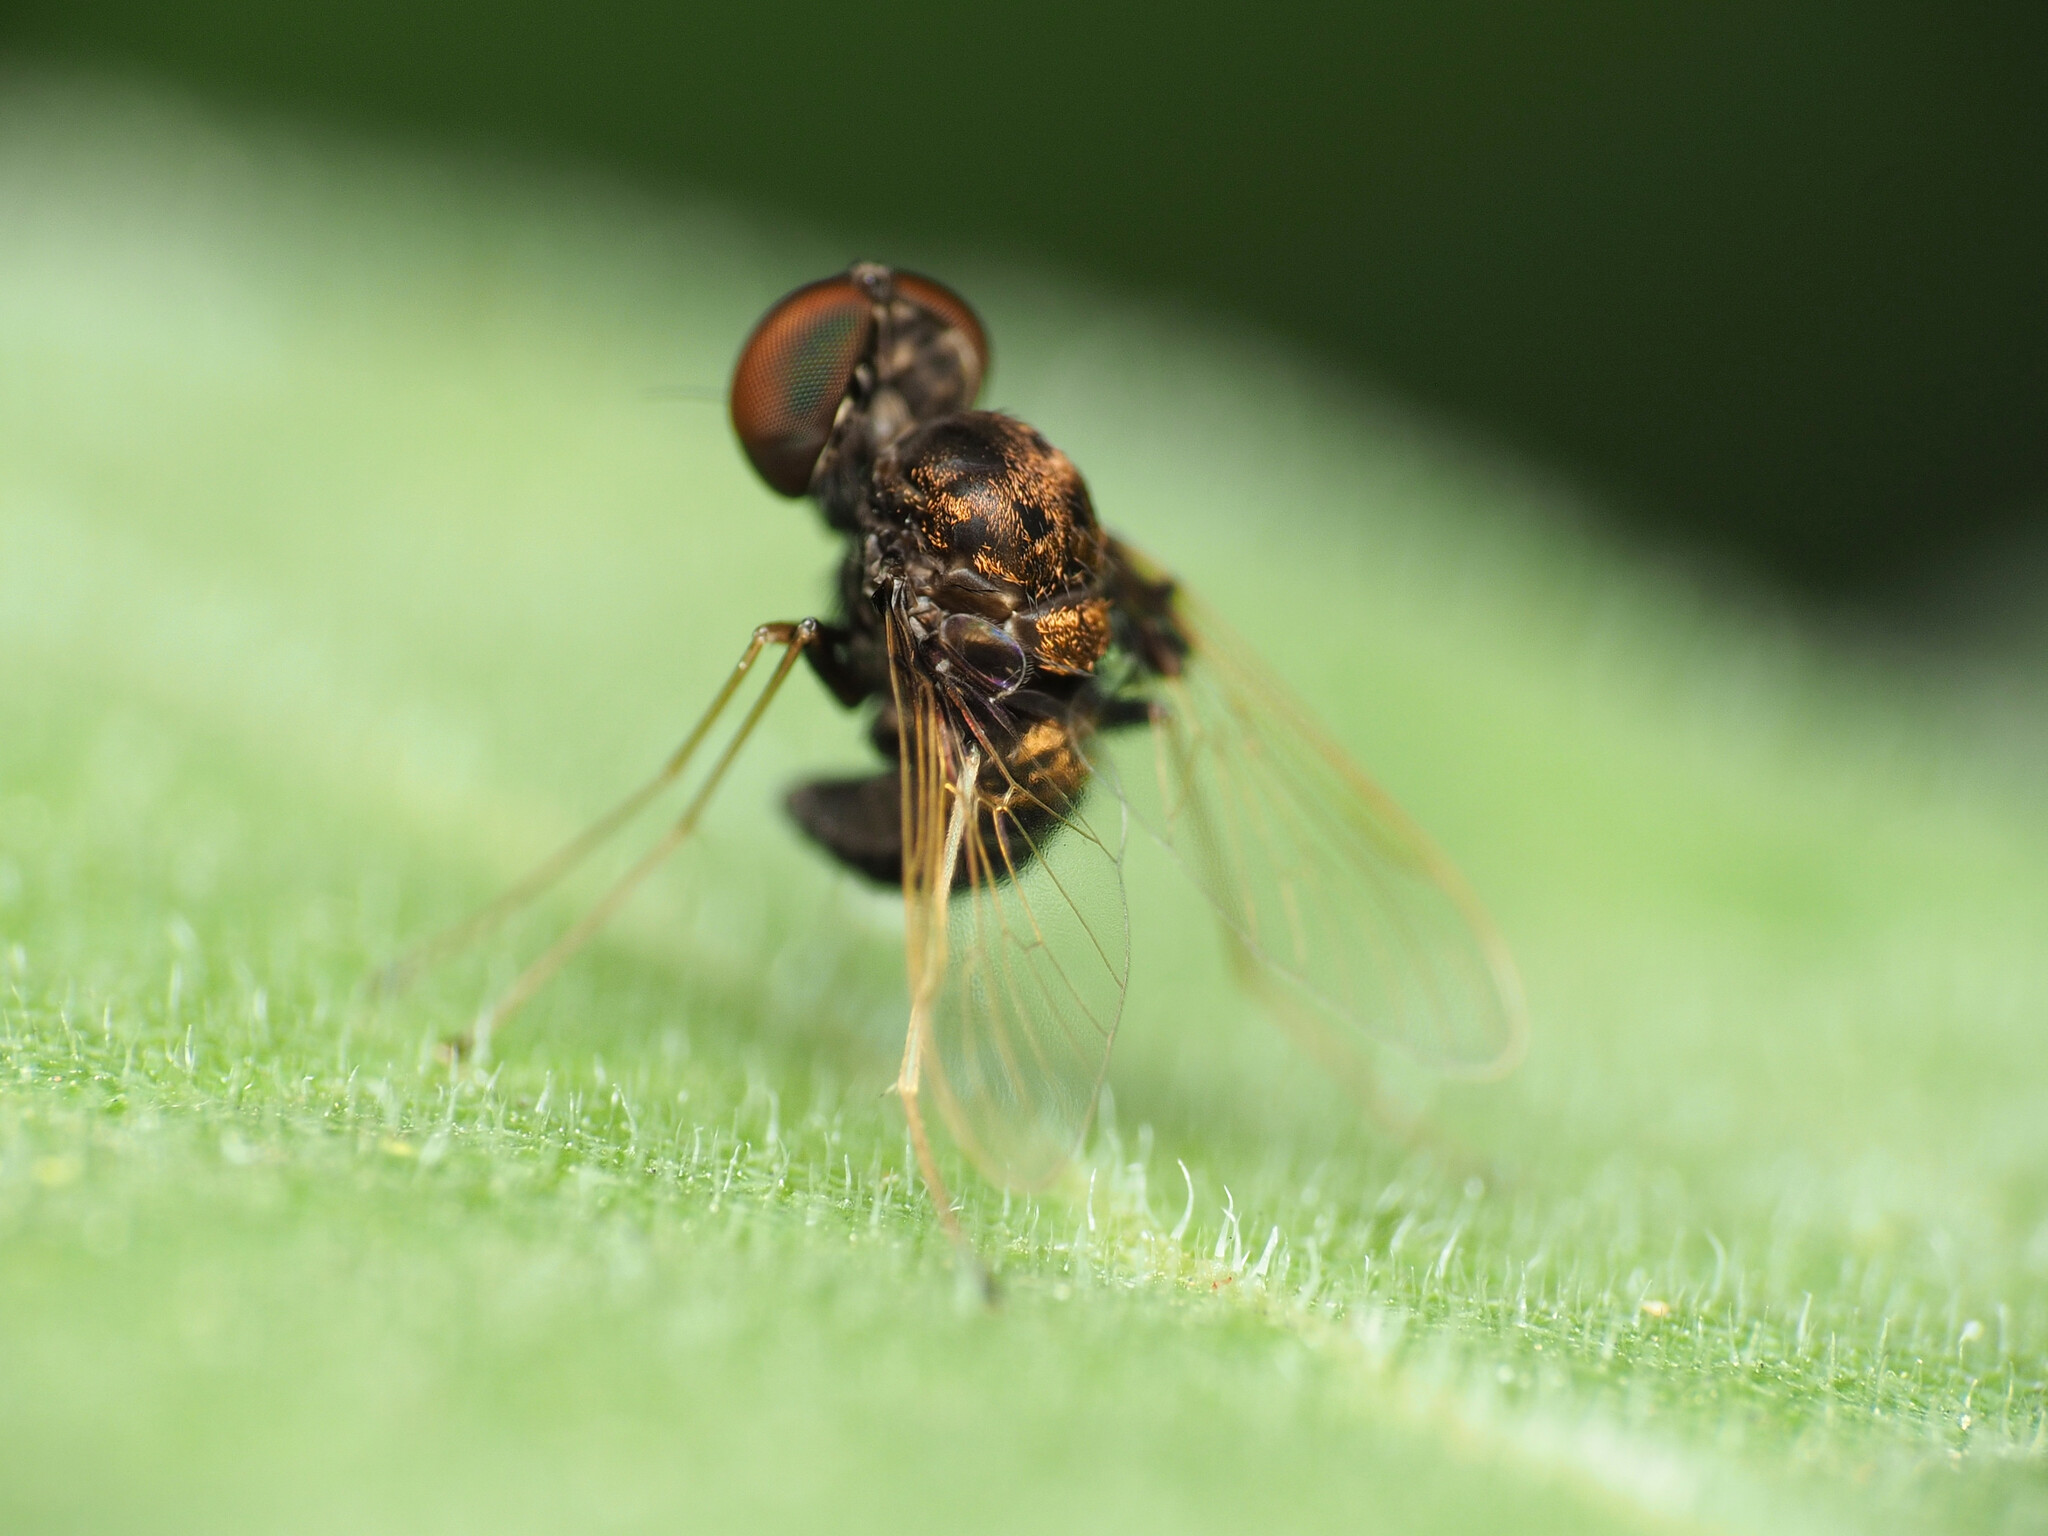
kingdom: Animalia
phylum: Arthropoda
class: Insecta
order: Diptera
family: Rhagionidae
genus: Chrysopilus
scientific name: Chrysopilus basilaris
